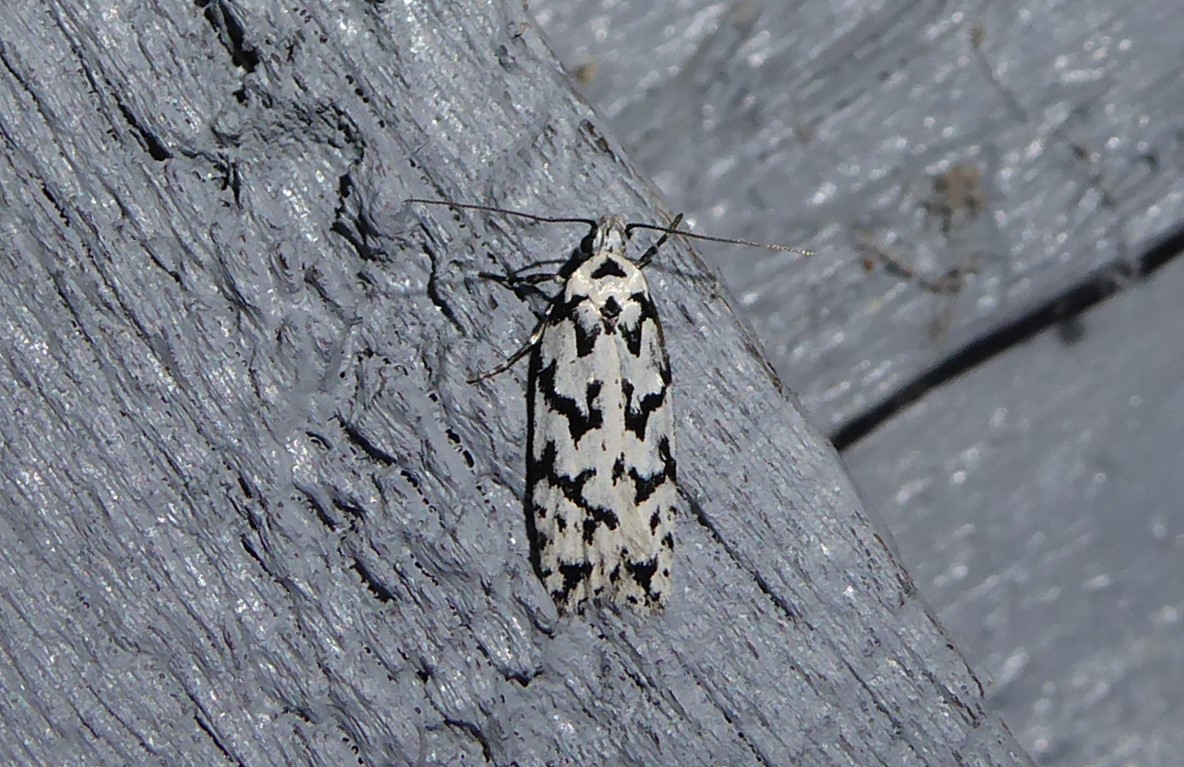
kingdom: Animalia
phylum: Arthropoda
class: Insecta
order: Lepidoptera
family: Oecophoridae
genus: Izatha
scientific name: Izatha katadiktya
